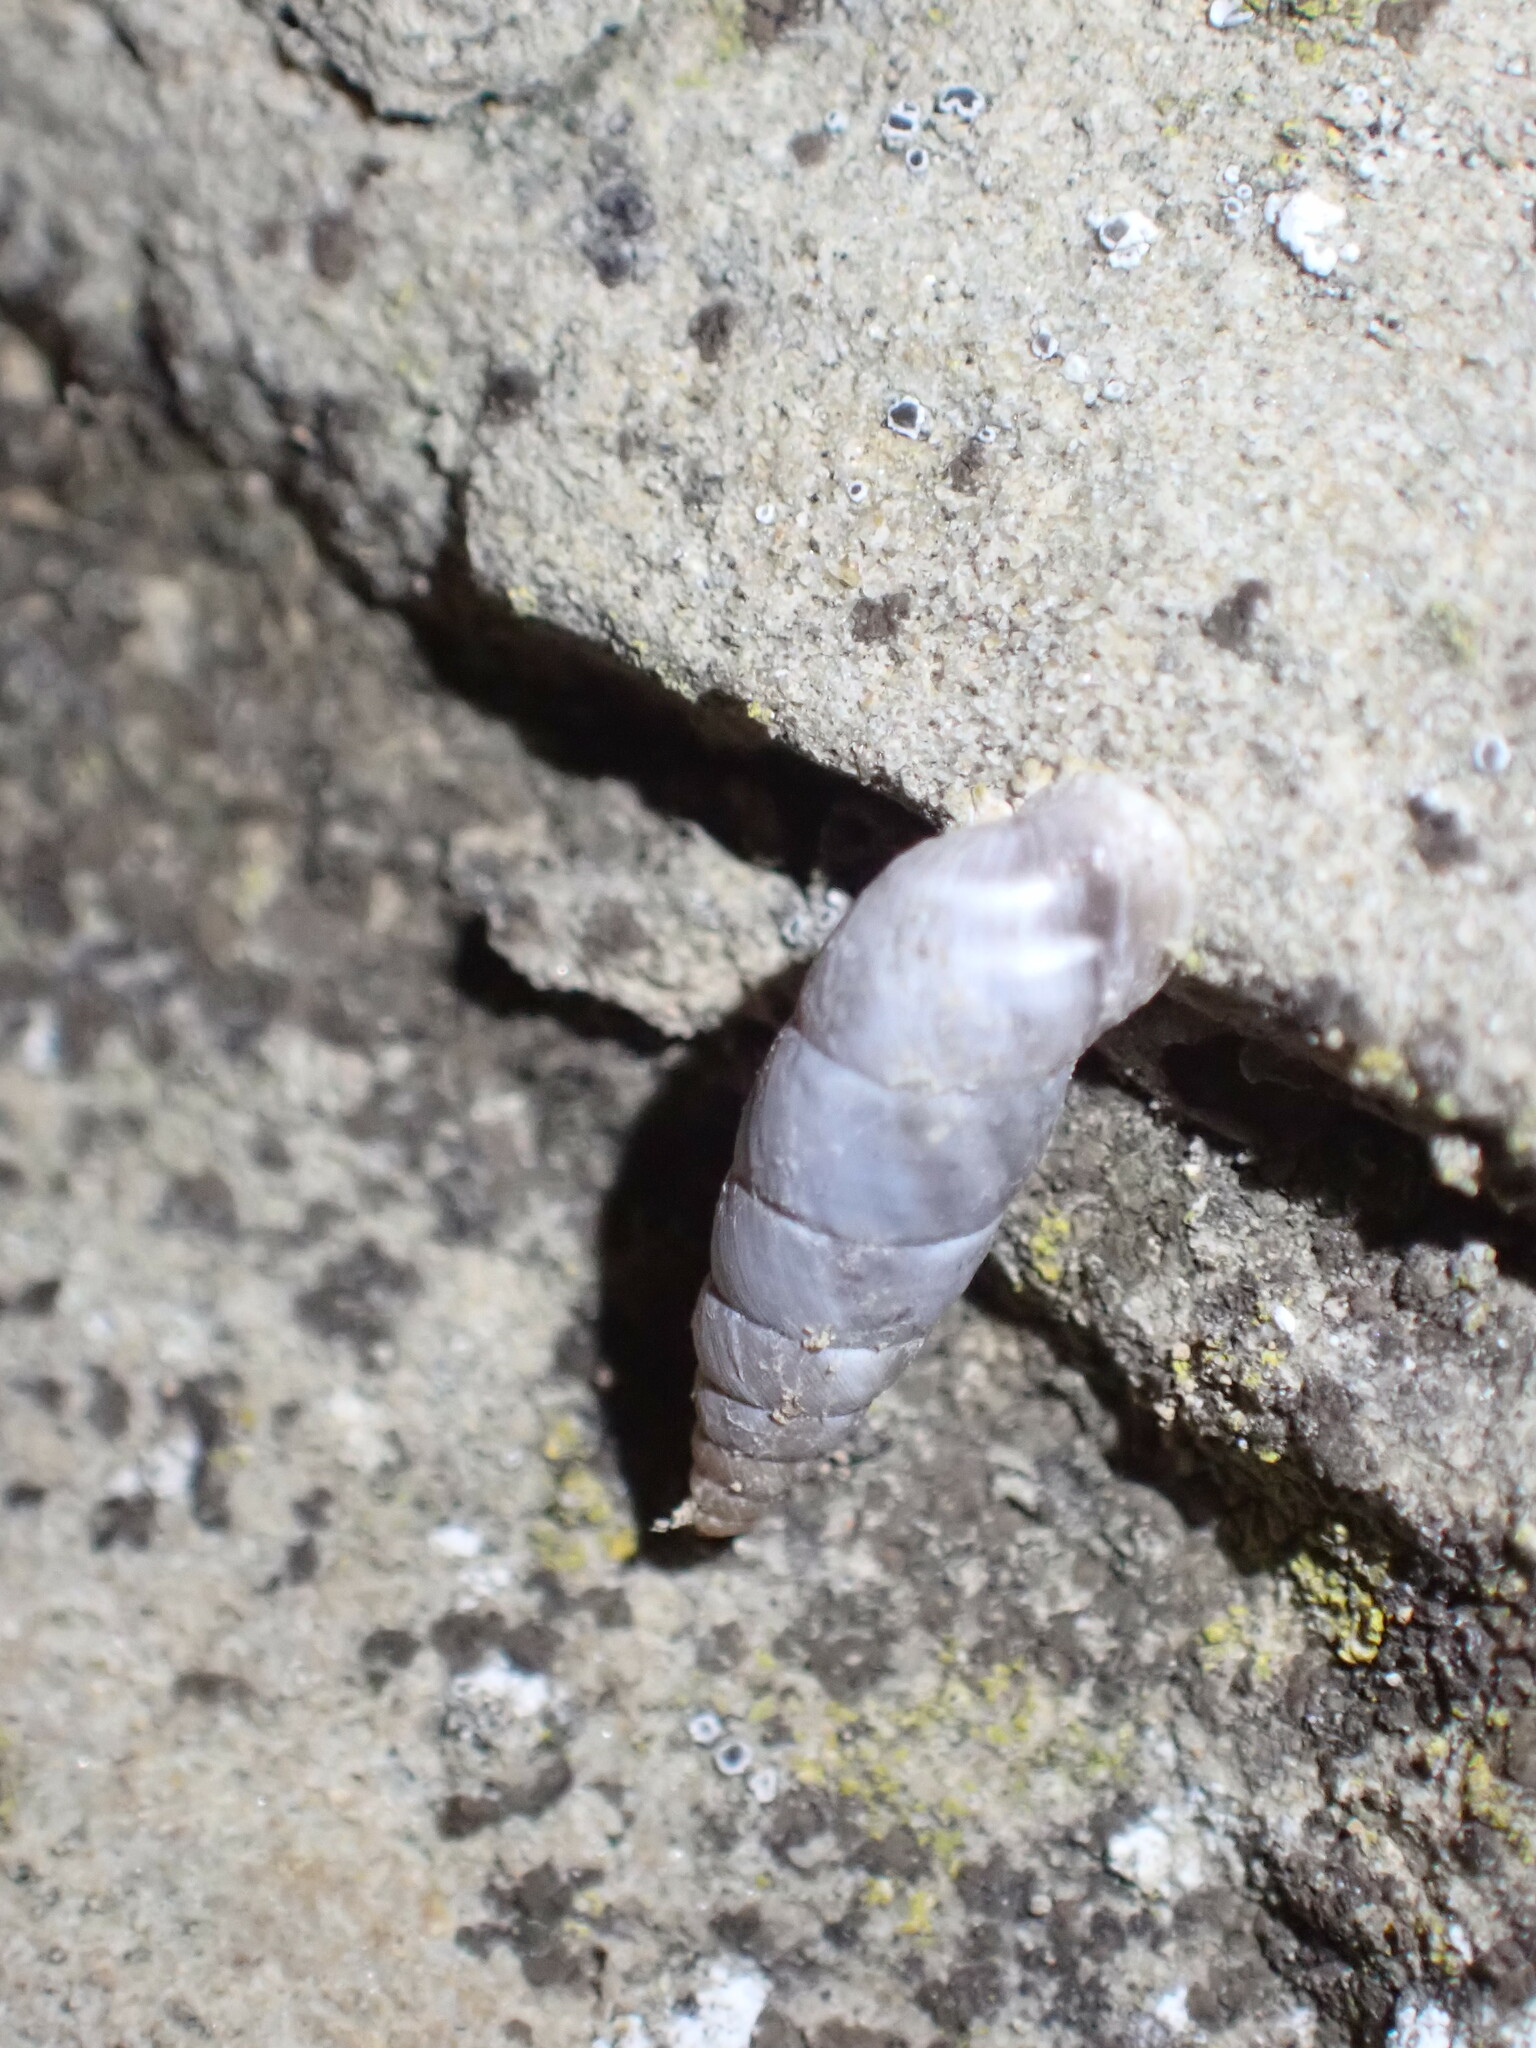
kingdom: Animalia
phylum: Mollusca
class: Gastropoda
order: Stylommatophora
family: Chondrinidae
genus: Solatopupa
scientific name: Solatopupa similis
